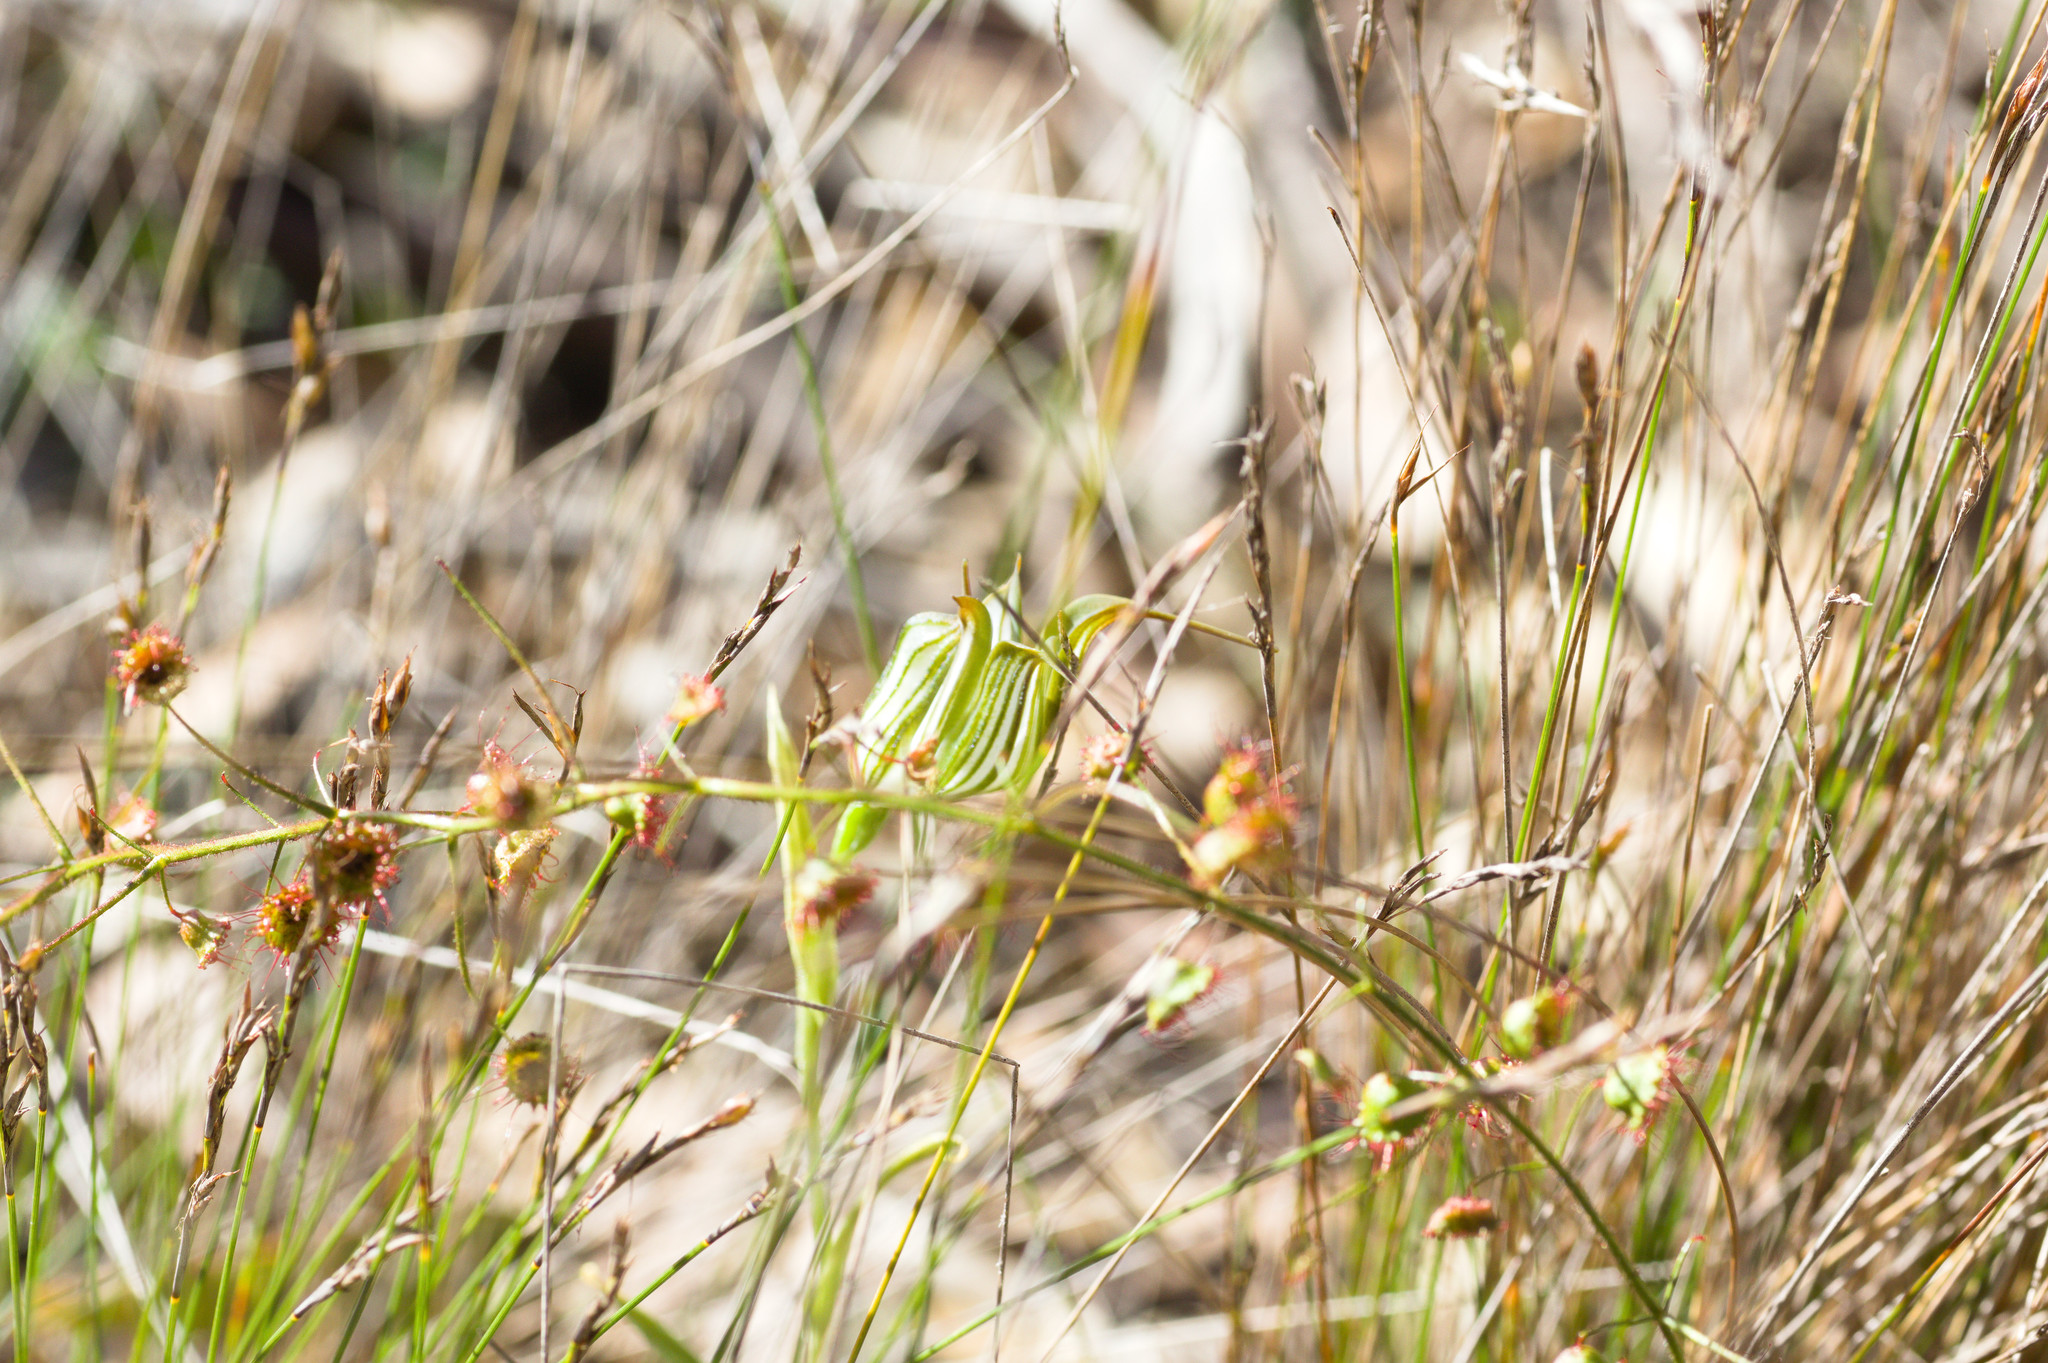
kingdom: Plantae
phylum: Tracheophyta
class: Liliopsida
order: Asparagales
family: Orchidaceae
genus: Pterostylis
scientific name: Pterostylis recurva
